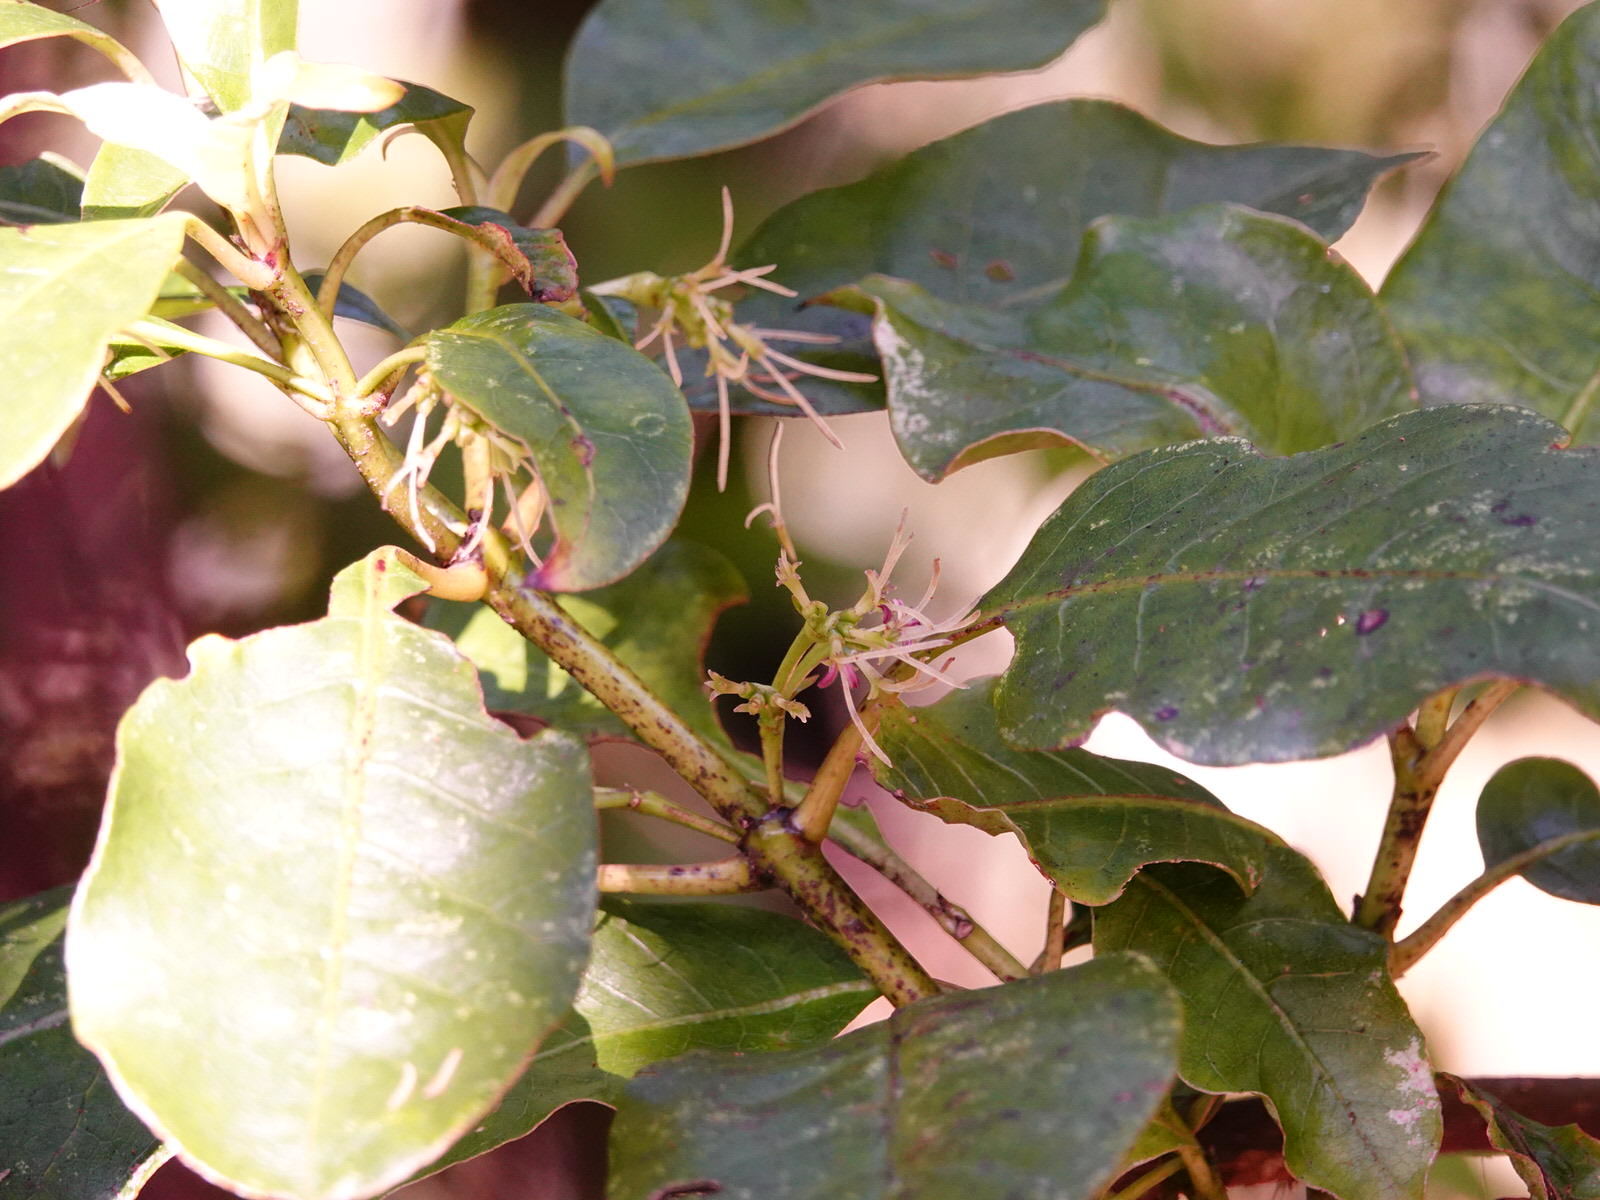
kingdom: Plantae
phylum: Tracheophyta
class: Magnoliopsida
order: Gentianales
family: Rubiaceae
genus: Coprosma
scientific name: Coprosma autumnalis
